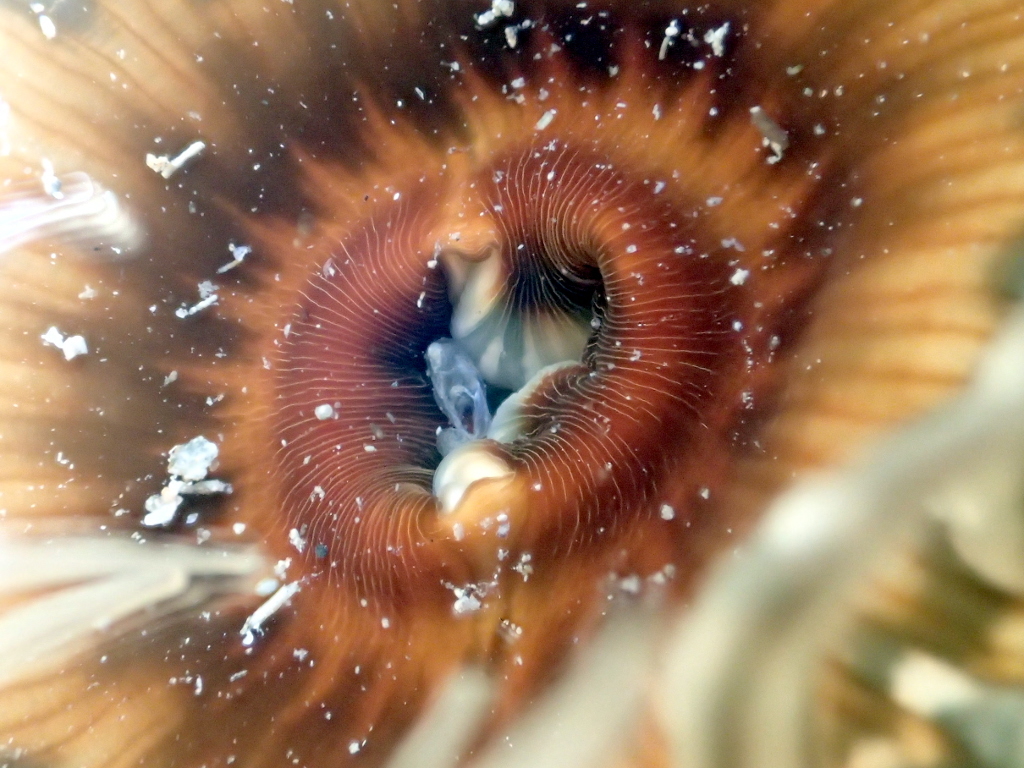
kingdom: Animalia
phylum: Cnidaria
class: Anthozoa
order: Actiniaria
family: Actiniidae
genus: Oulactis
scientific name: Oulactis muscosa
